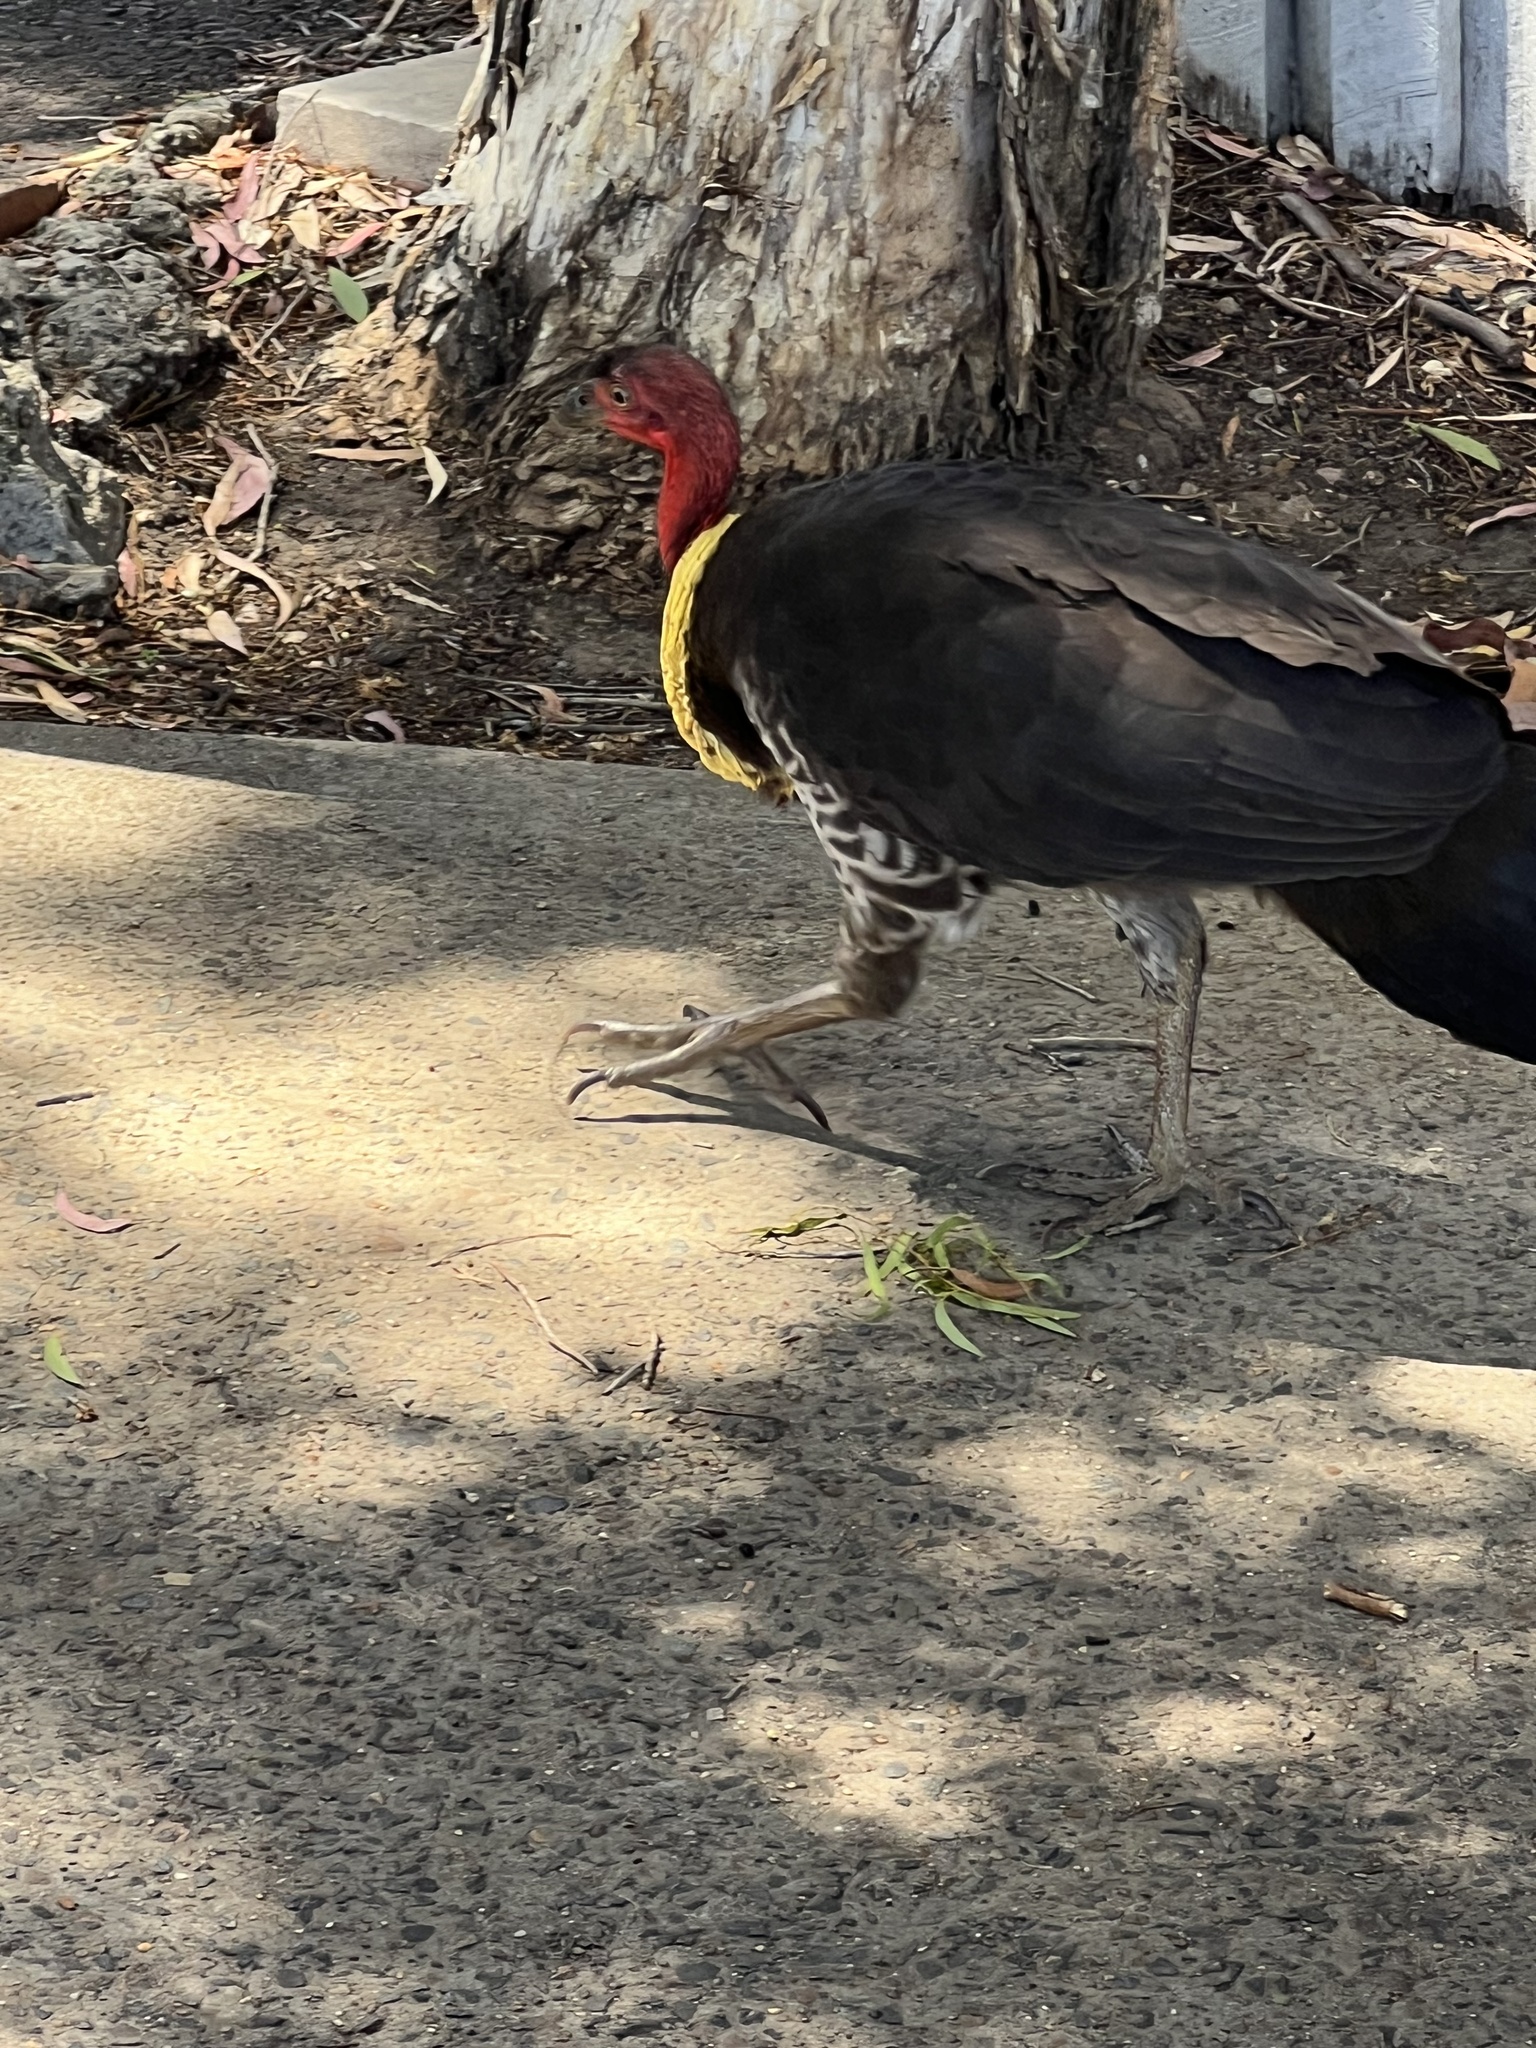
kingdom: Animalia
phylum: Chordata
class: Aves
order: Galliformes
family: Megapodiidae
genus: Alectura
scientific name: Alectura lathami
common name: Australian brushturkey
